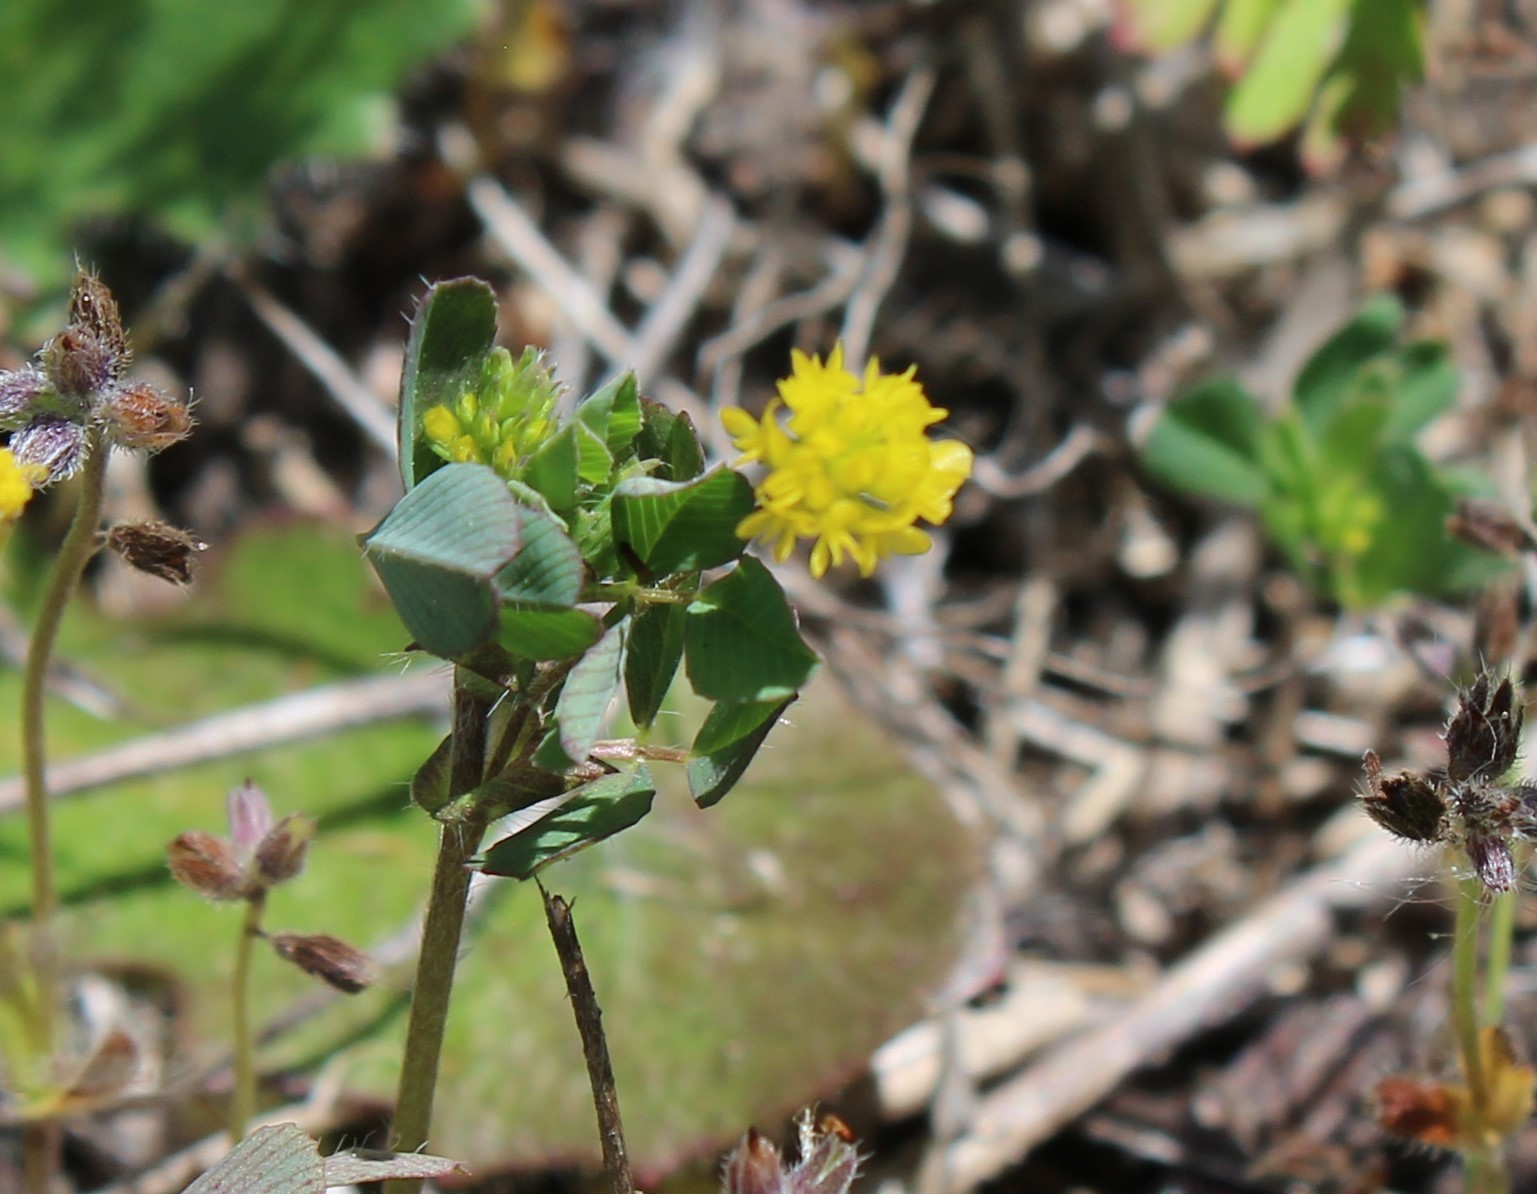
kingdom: Plantae
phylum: Tracheophyta
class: Magnoliopsida
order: Fabales
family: Fabaceae
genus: Trifolium
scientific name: Trifolium dubium
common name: Suckling clover
